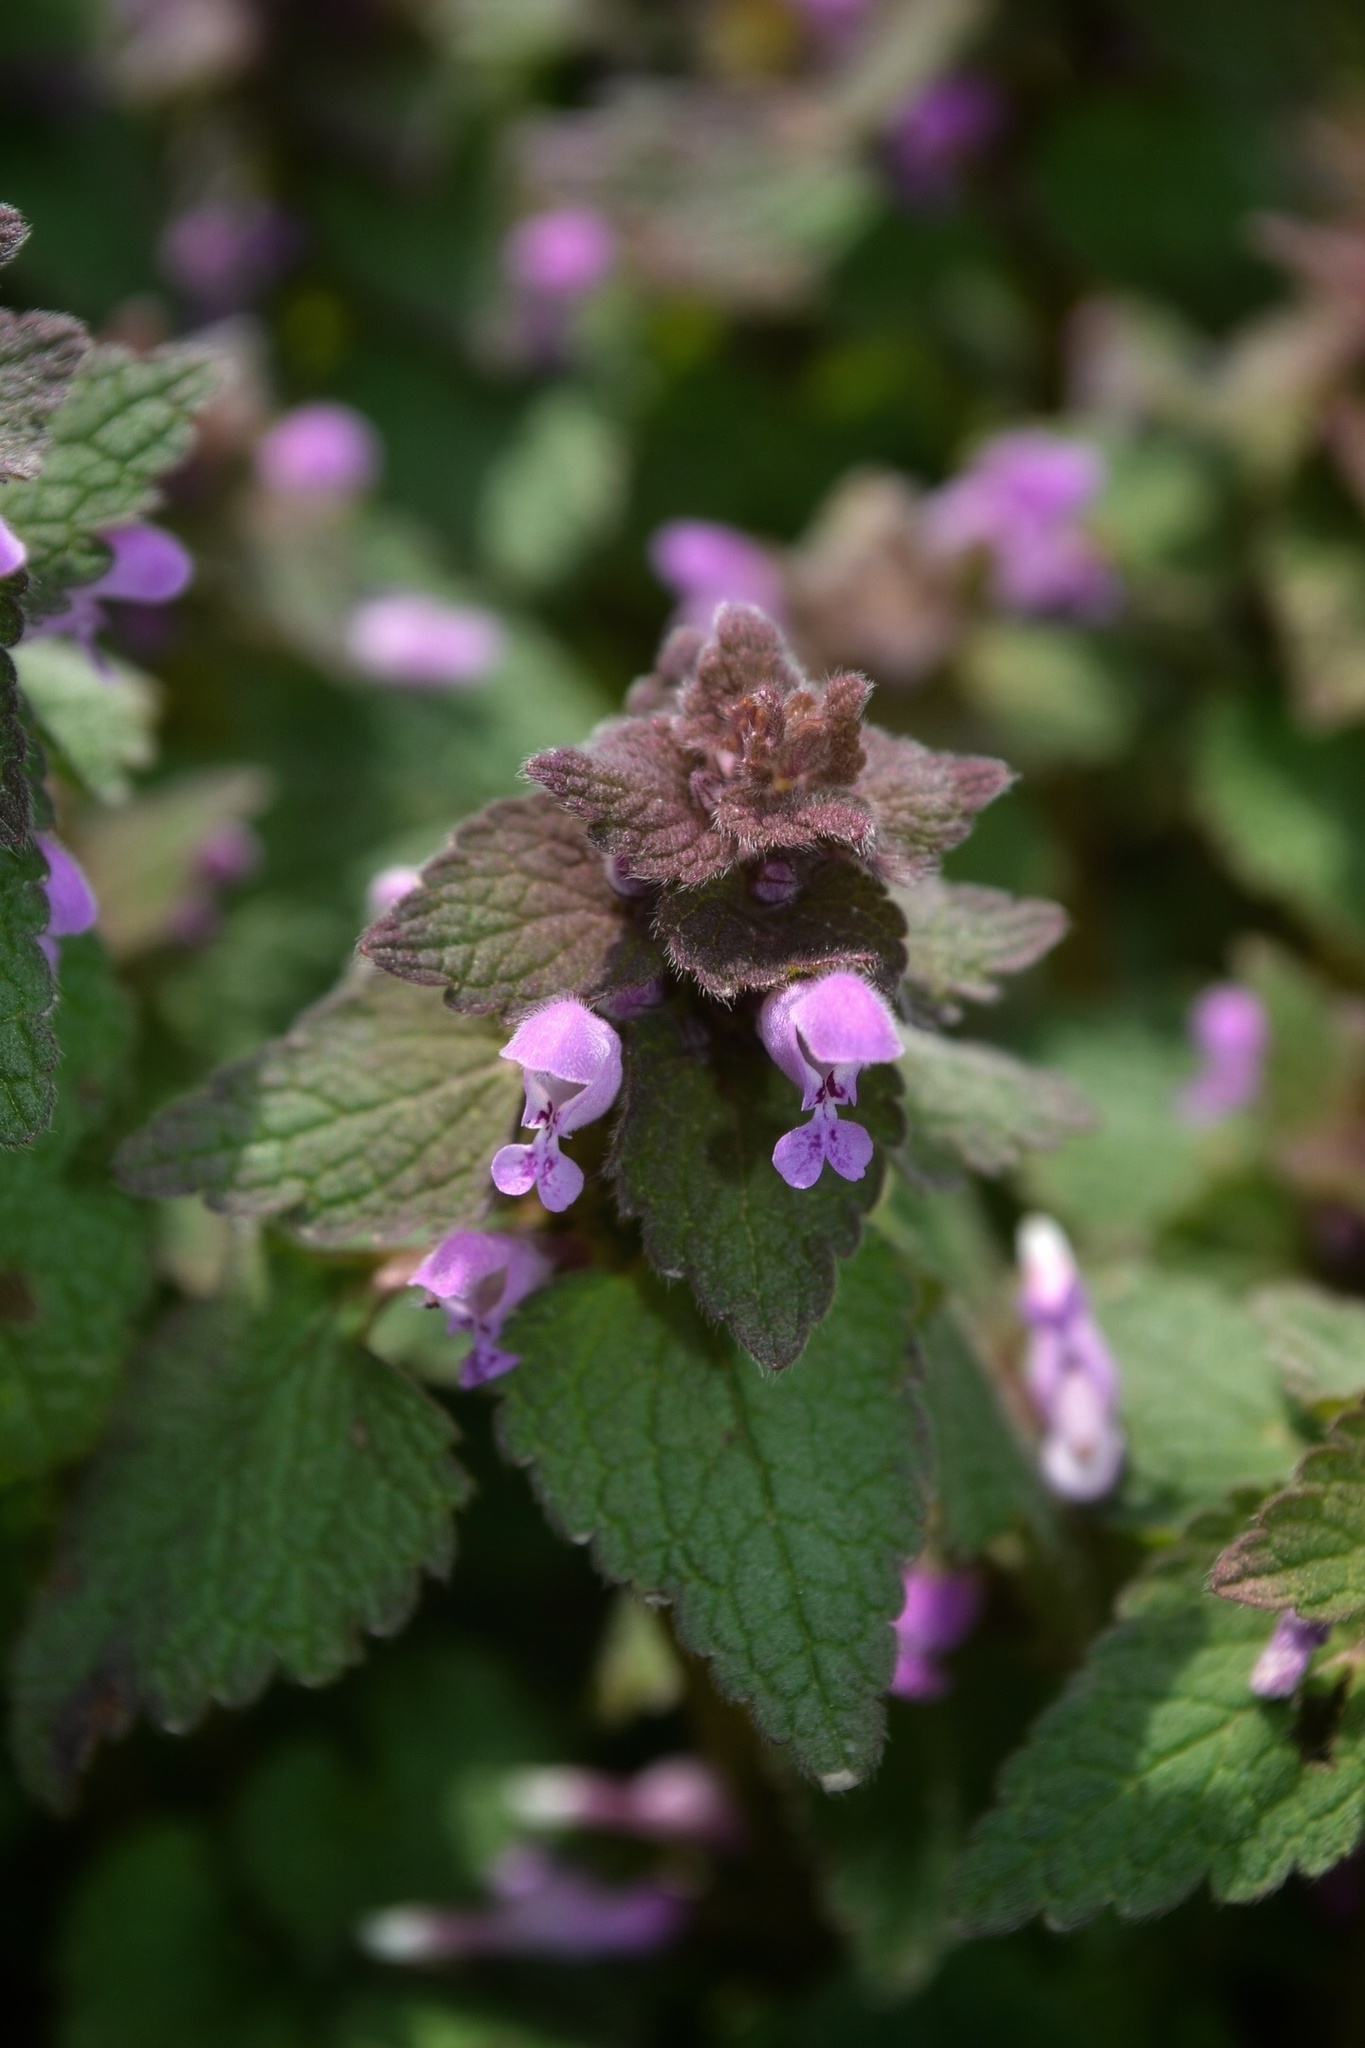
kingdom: Plantae
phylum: Tracheophyta
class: Magnoliopsida
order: Lamiales
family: Lamiaceae
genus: Lamium
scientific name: Lamium purpureum
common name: Red dead-nettle
